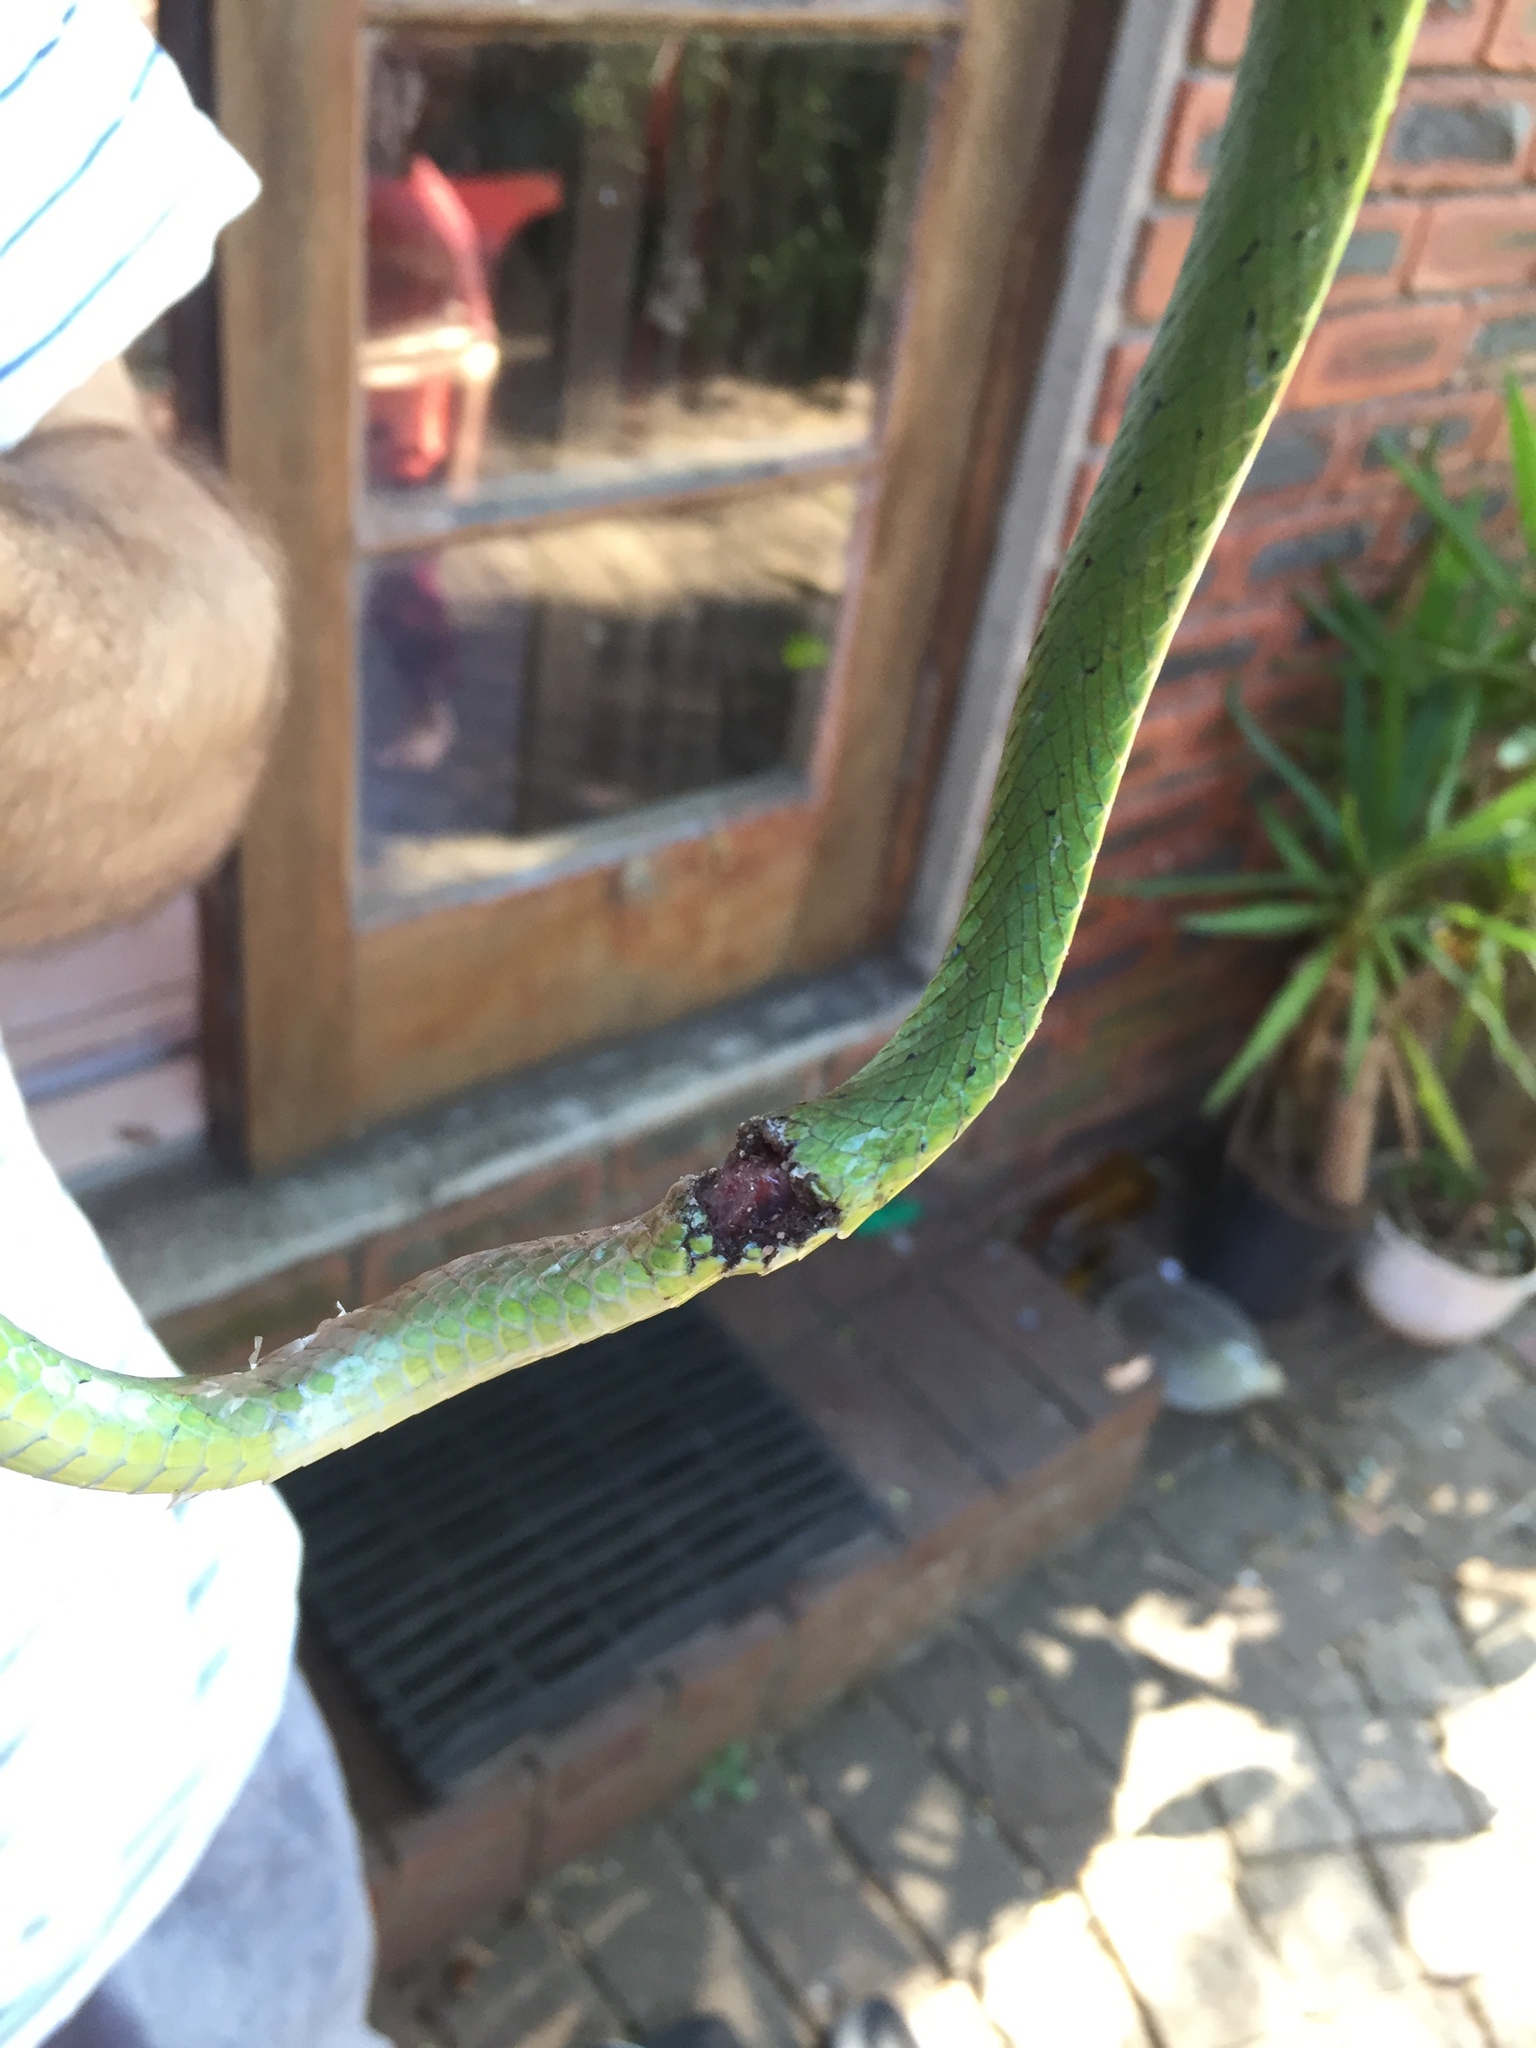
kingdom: Animalia
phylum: Chordata
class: Squamata
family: Colubridae
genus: Philothamnus
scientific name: Philothamnus semivariegatus
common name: Spotted bush snake
